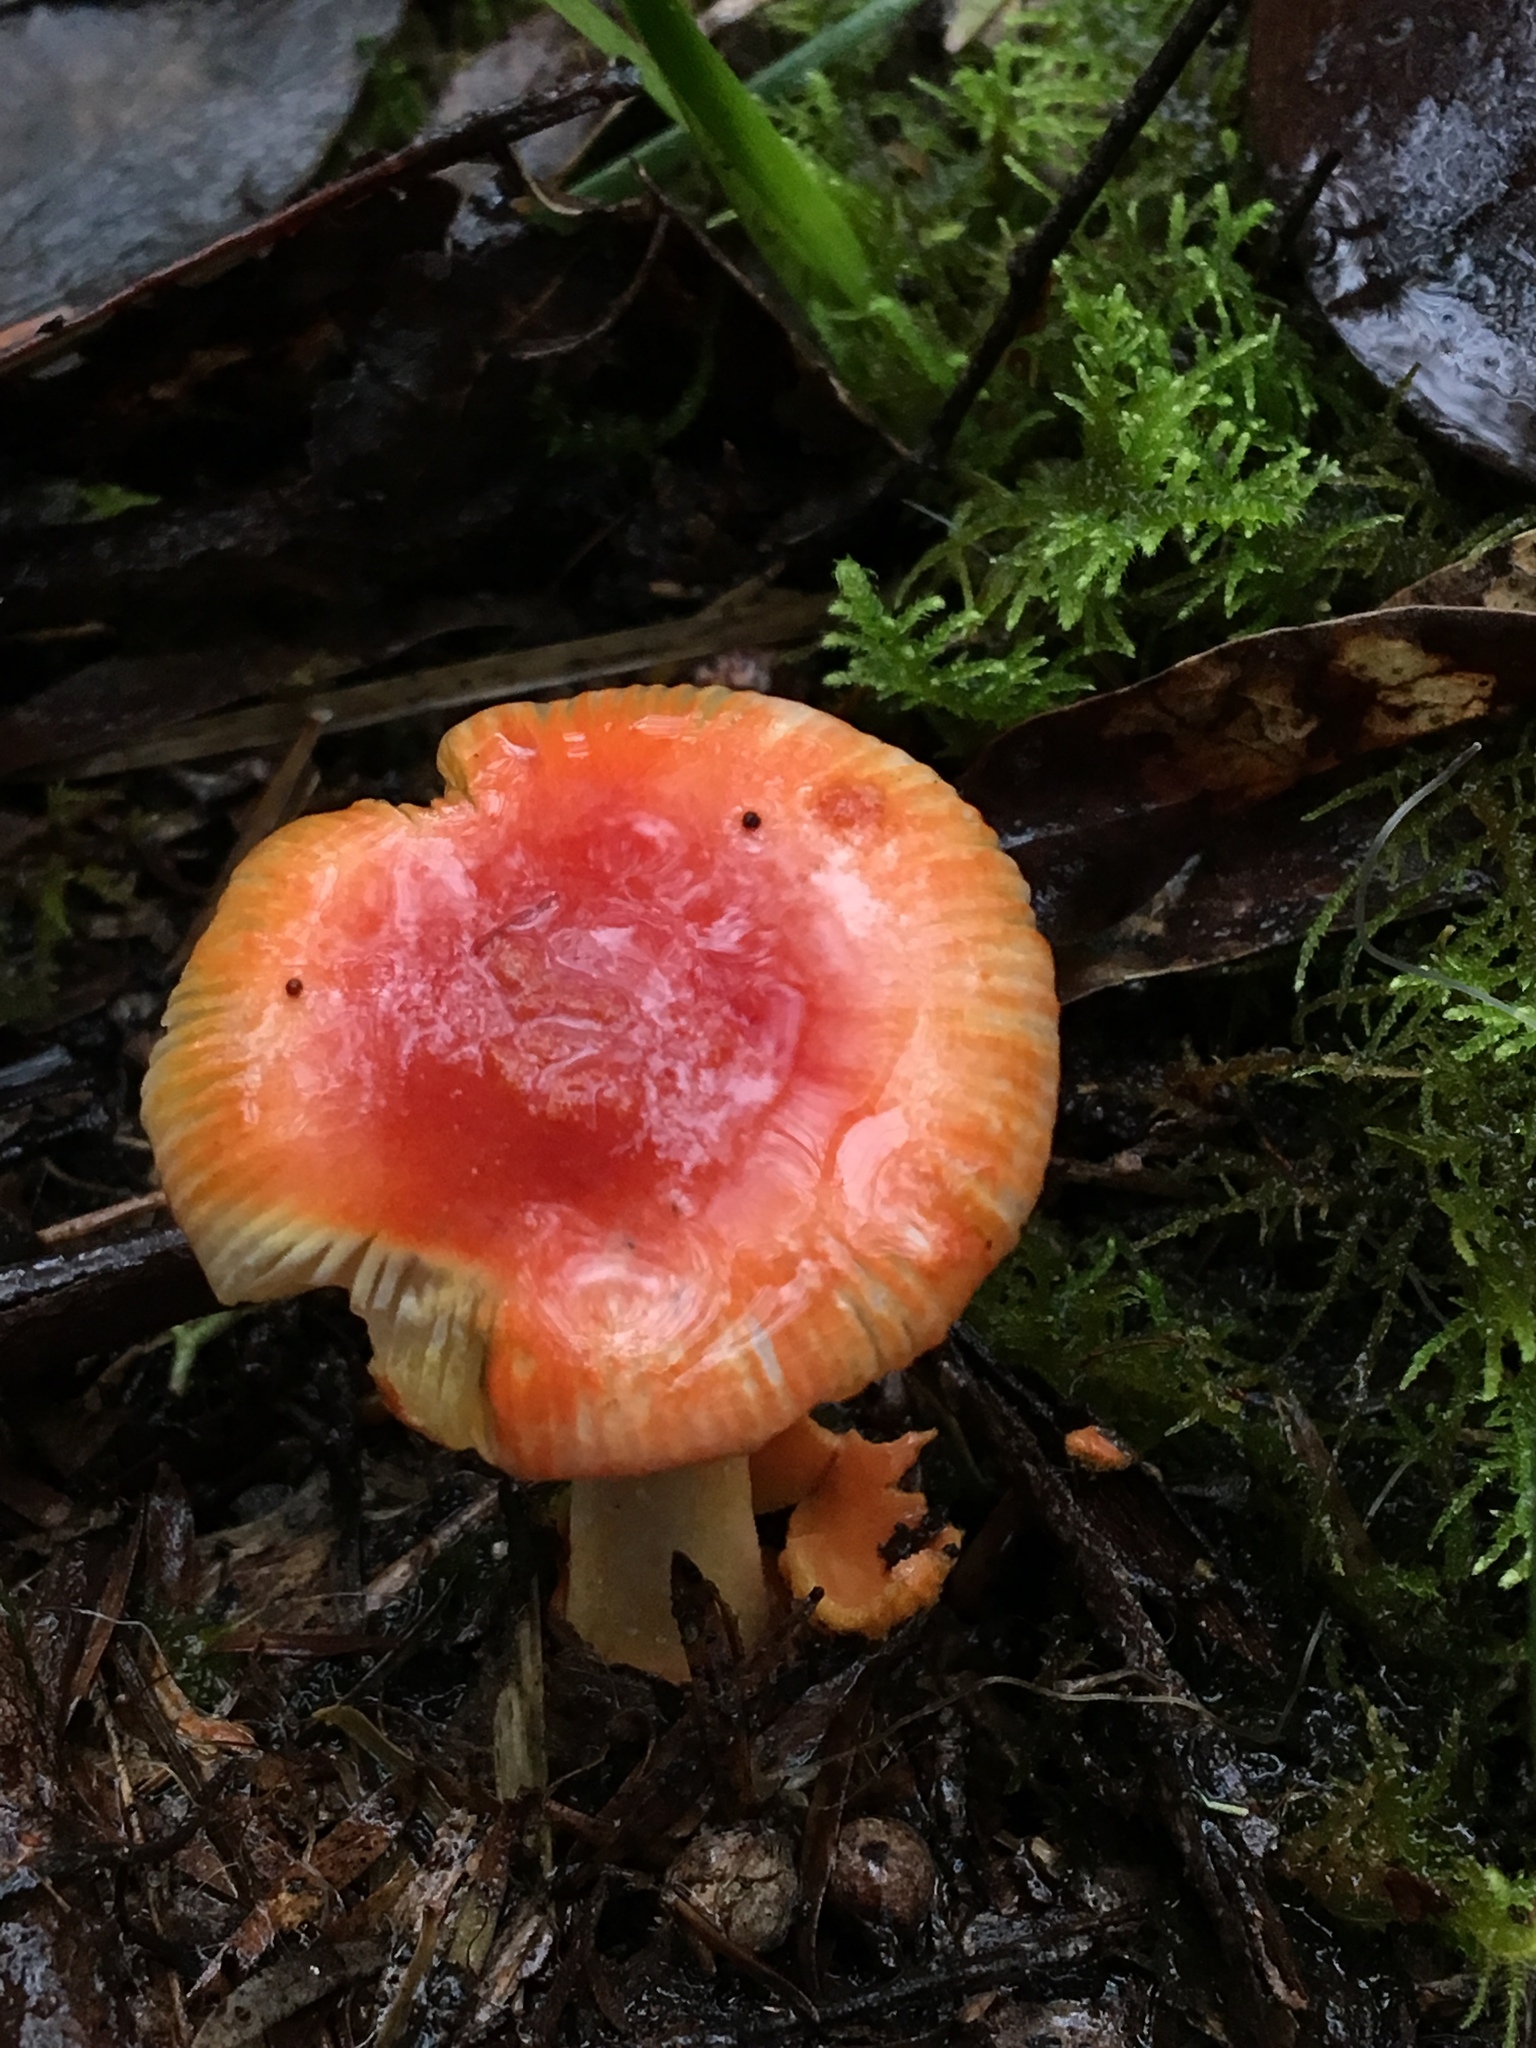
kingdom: Fungi
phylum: Basidiomycota
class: Agaricomycetes
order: Agaricales
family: Amanitaceae
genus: Amanita
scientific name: Amanita xanthocephala
